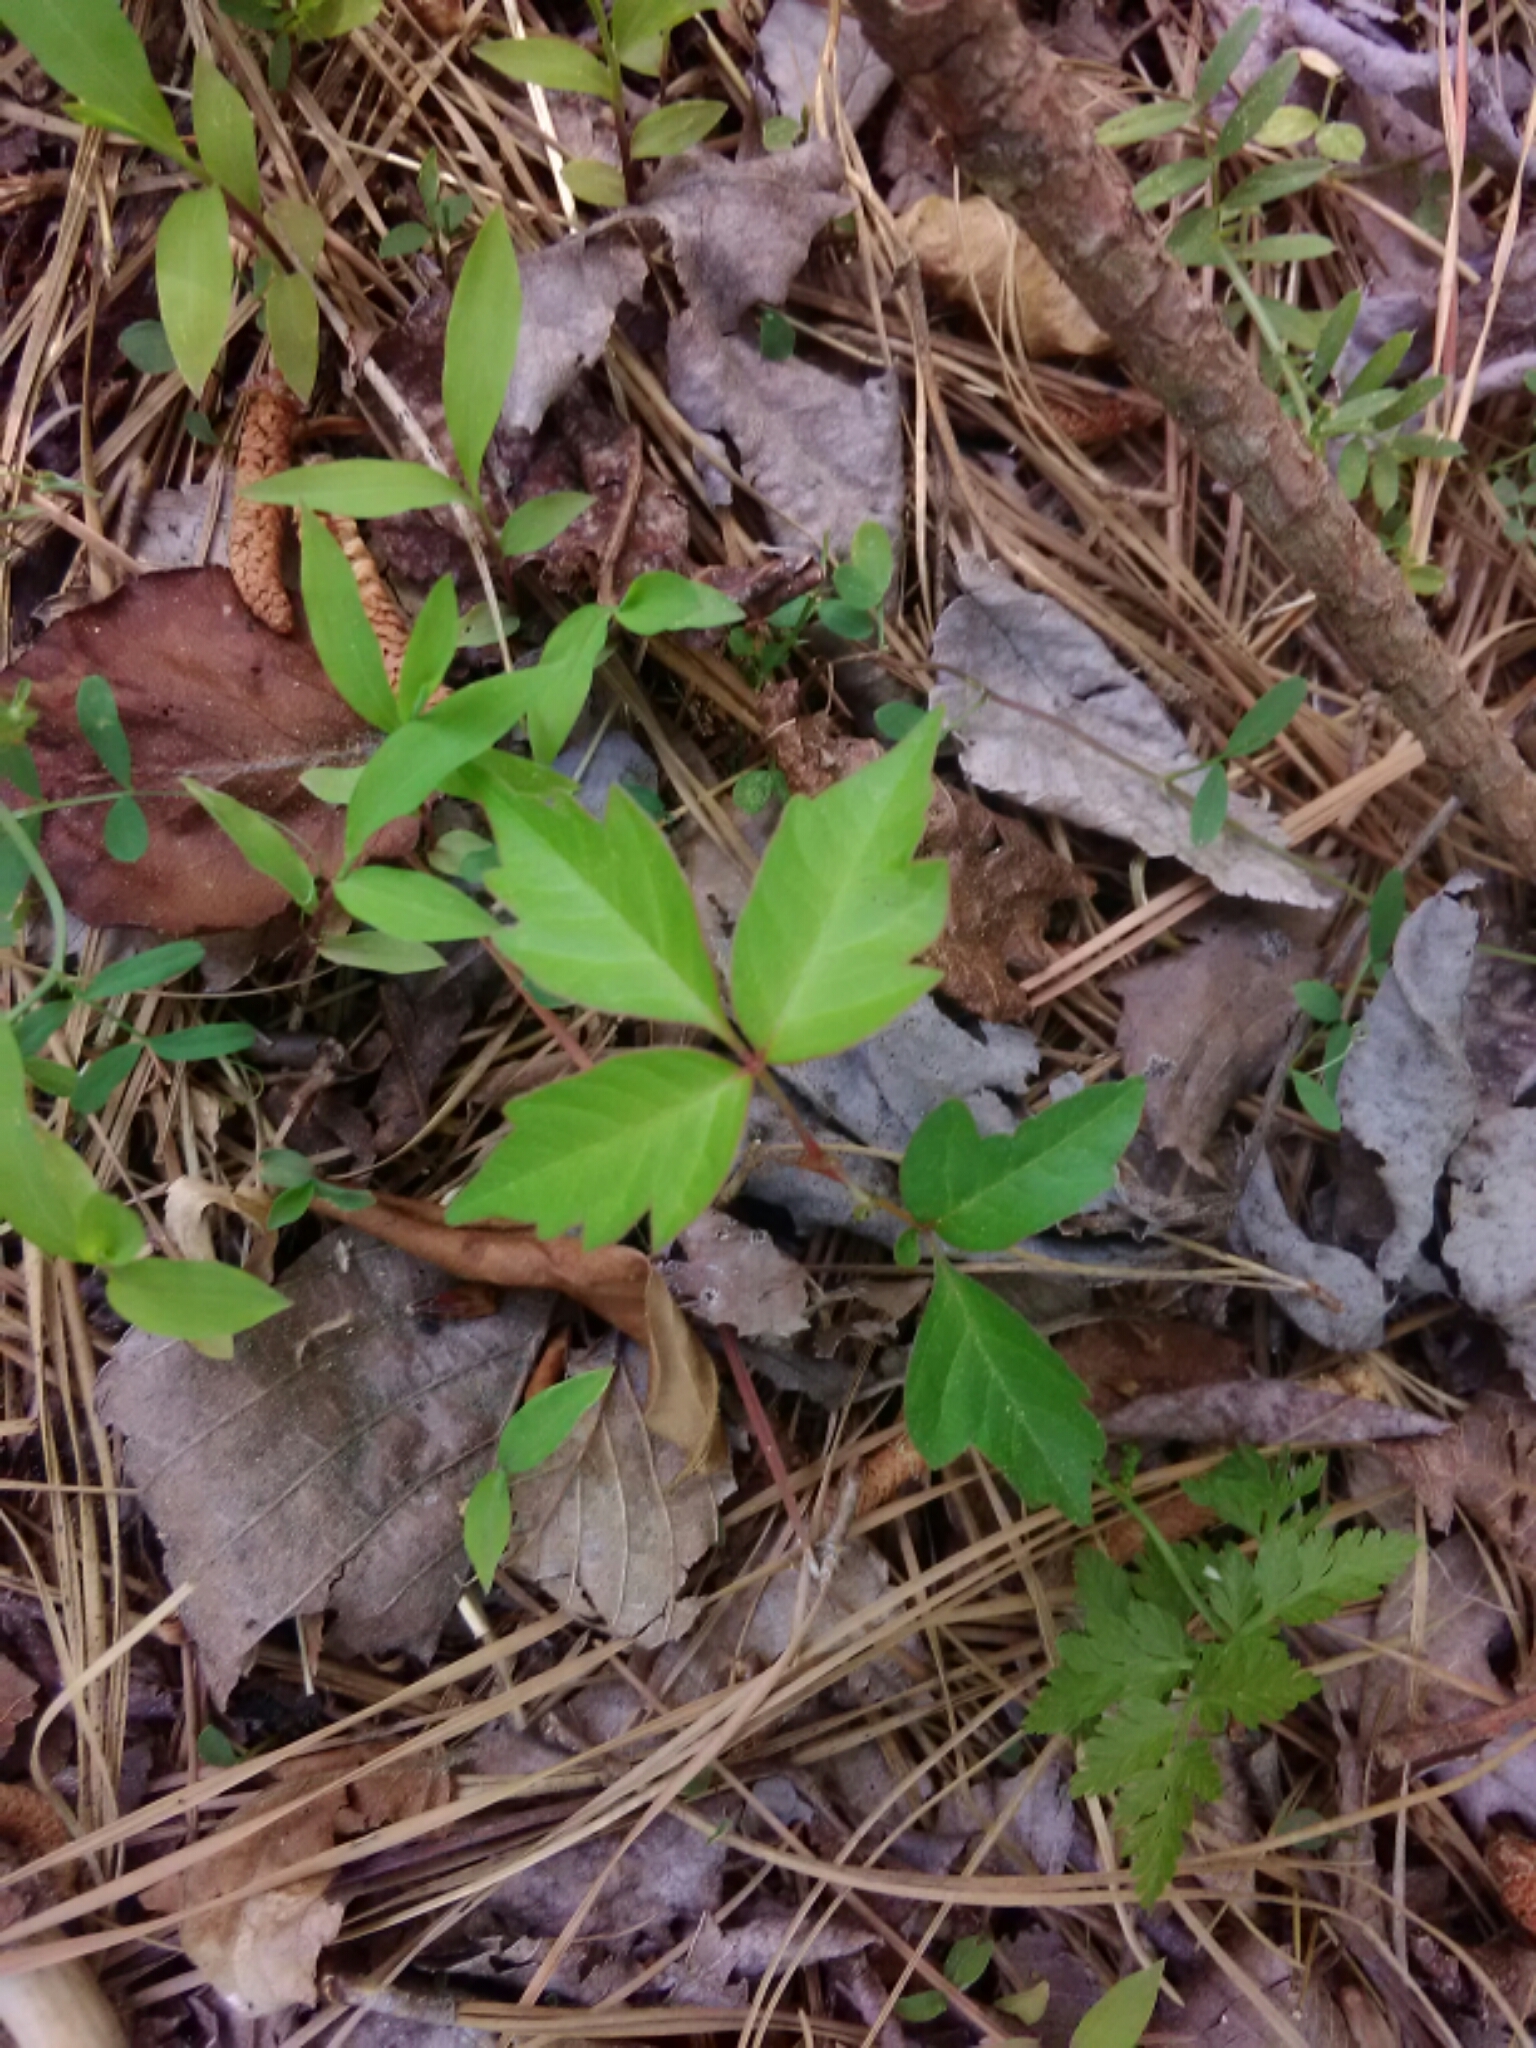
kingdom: Plantae
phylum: Tracheophyta
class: Magnoliopsida
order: Sapindales
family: Anacardiaceae
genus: Toxicodendron
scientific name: Toxicodendron radicans
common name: Poison ivy
